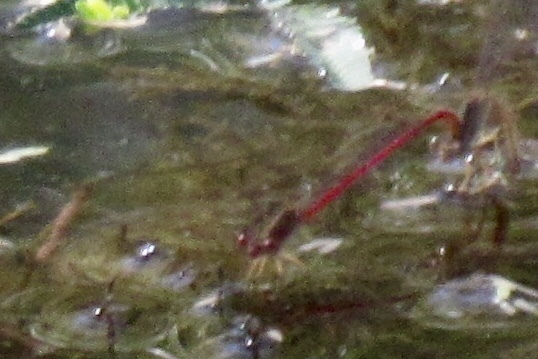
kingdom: Animalia
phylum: Arthropoda
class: Insecta
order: Odonata
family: Coenagrionidae
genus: Telebasis
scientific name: Telebasis salva
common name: Desert firetail
